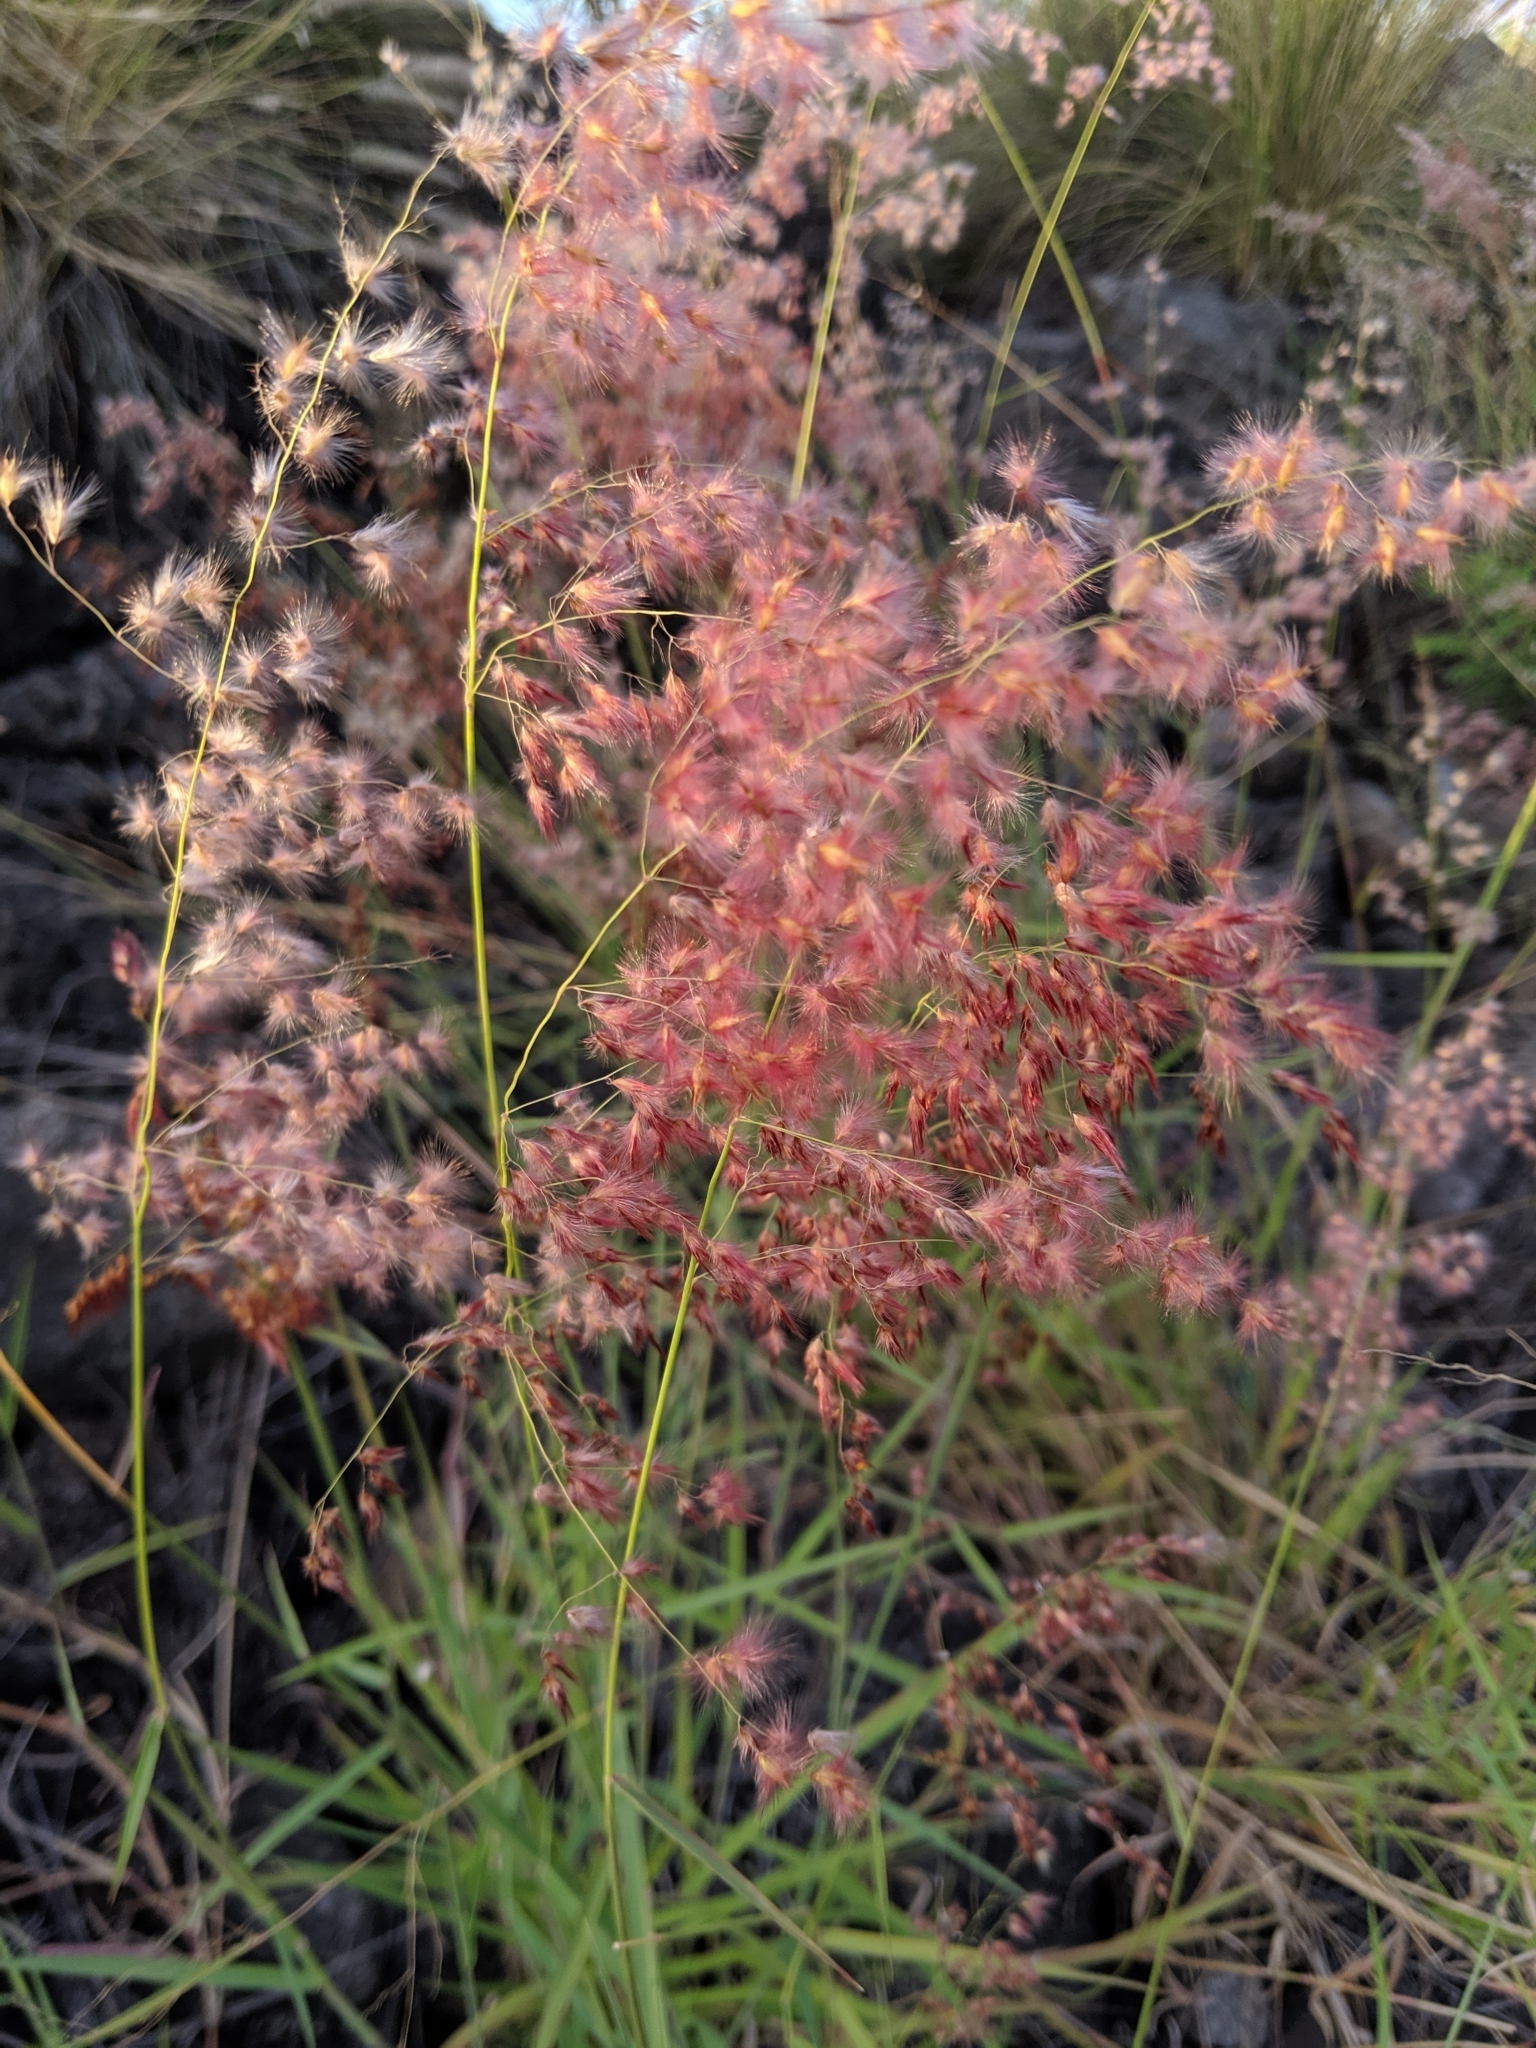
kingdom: Plantae
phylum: Tracheophyta
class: Liliopsida
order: Poales
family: Poaceae
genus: Melinis
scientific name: Melinis repens
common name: Rose natal grass
